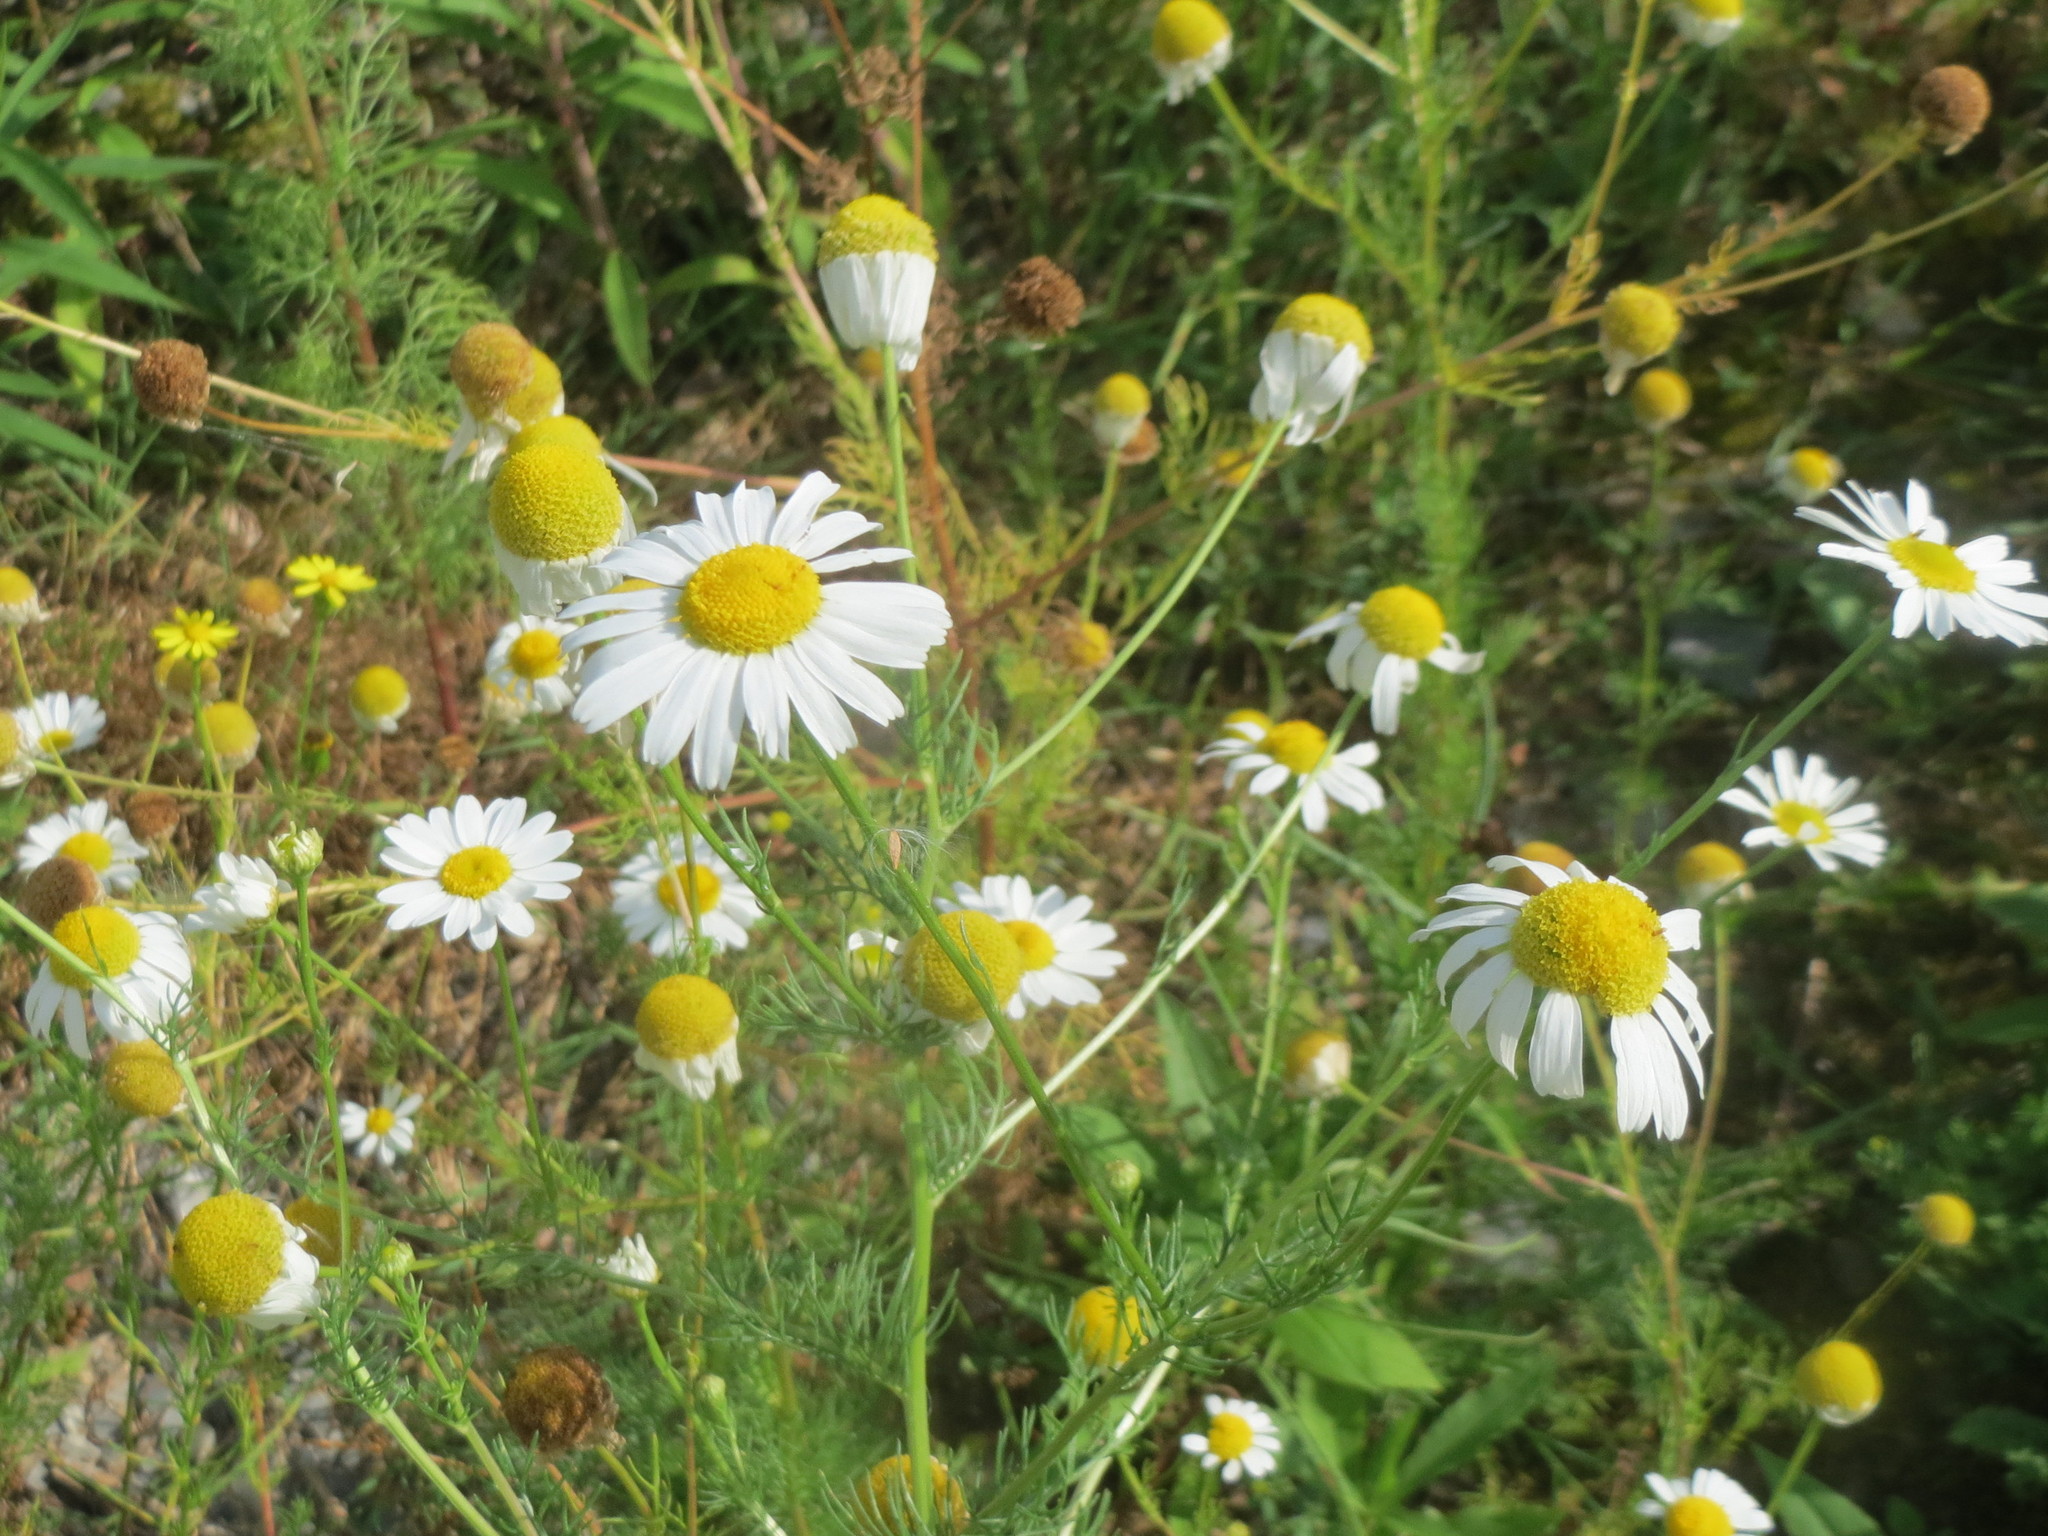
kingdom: Plantae
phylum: Tracheophyta
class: Magnoliopsida
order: Asterales
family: Asteraceae
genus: Tripleurospermum
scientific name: Tripleurospermum inodorum
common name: Scentless mayweed
